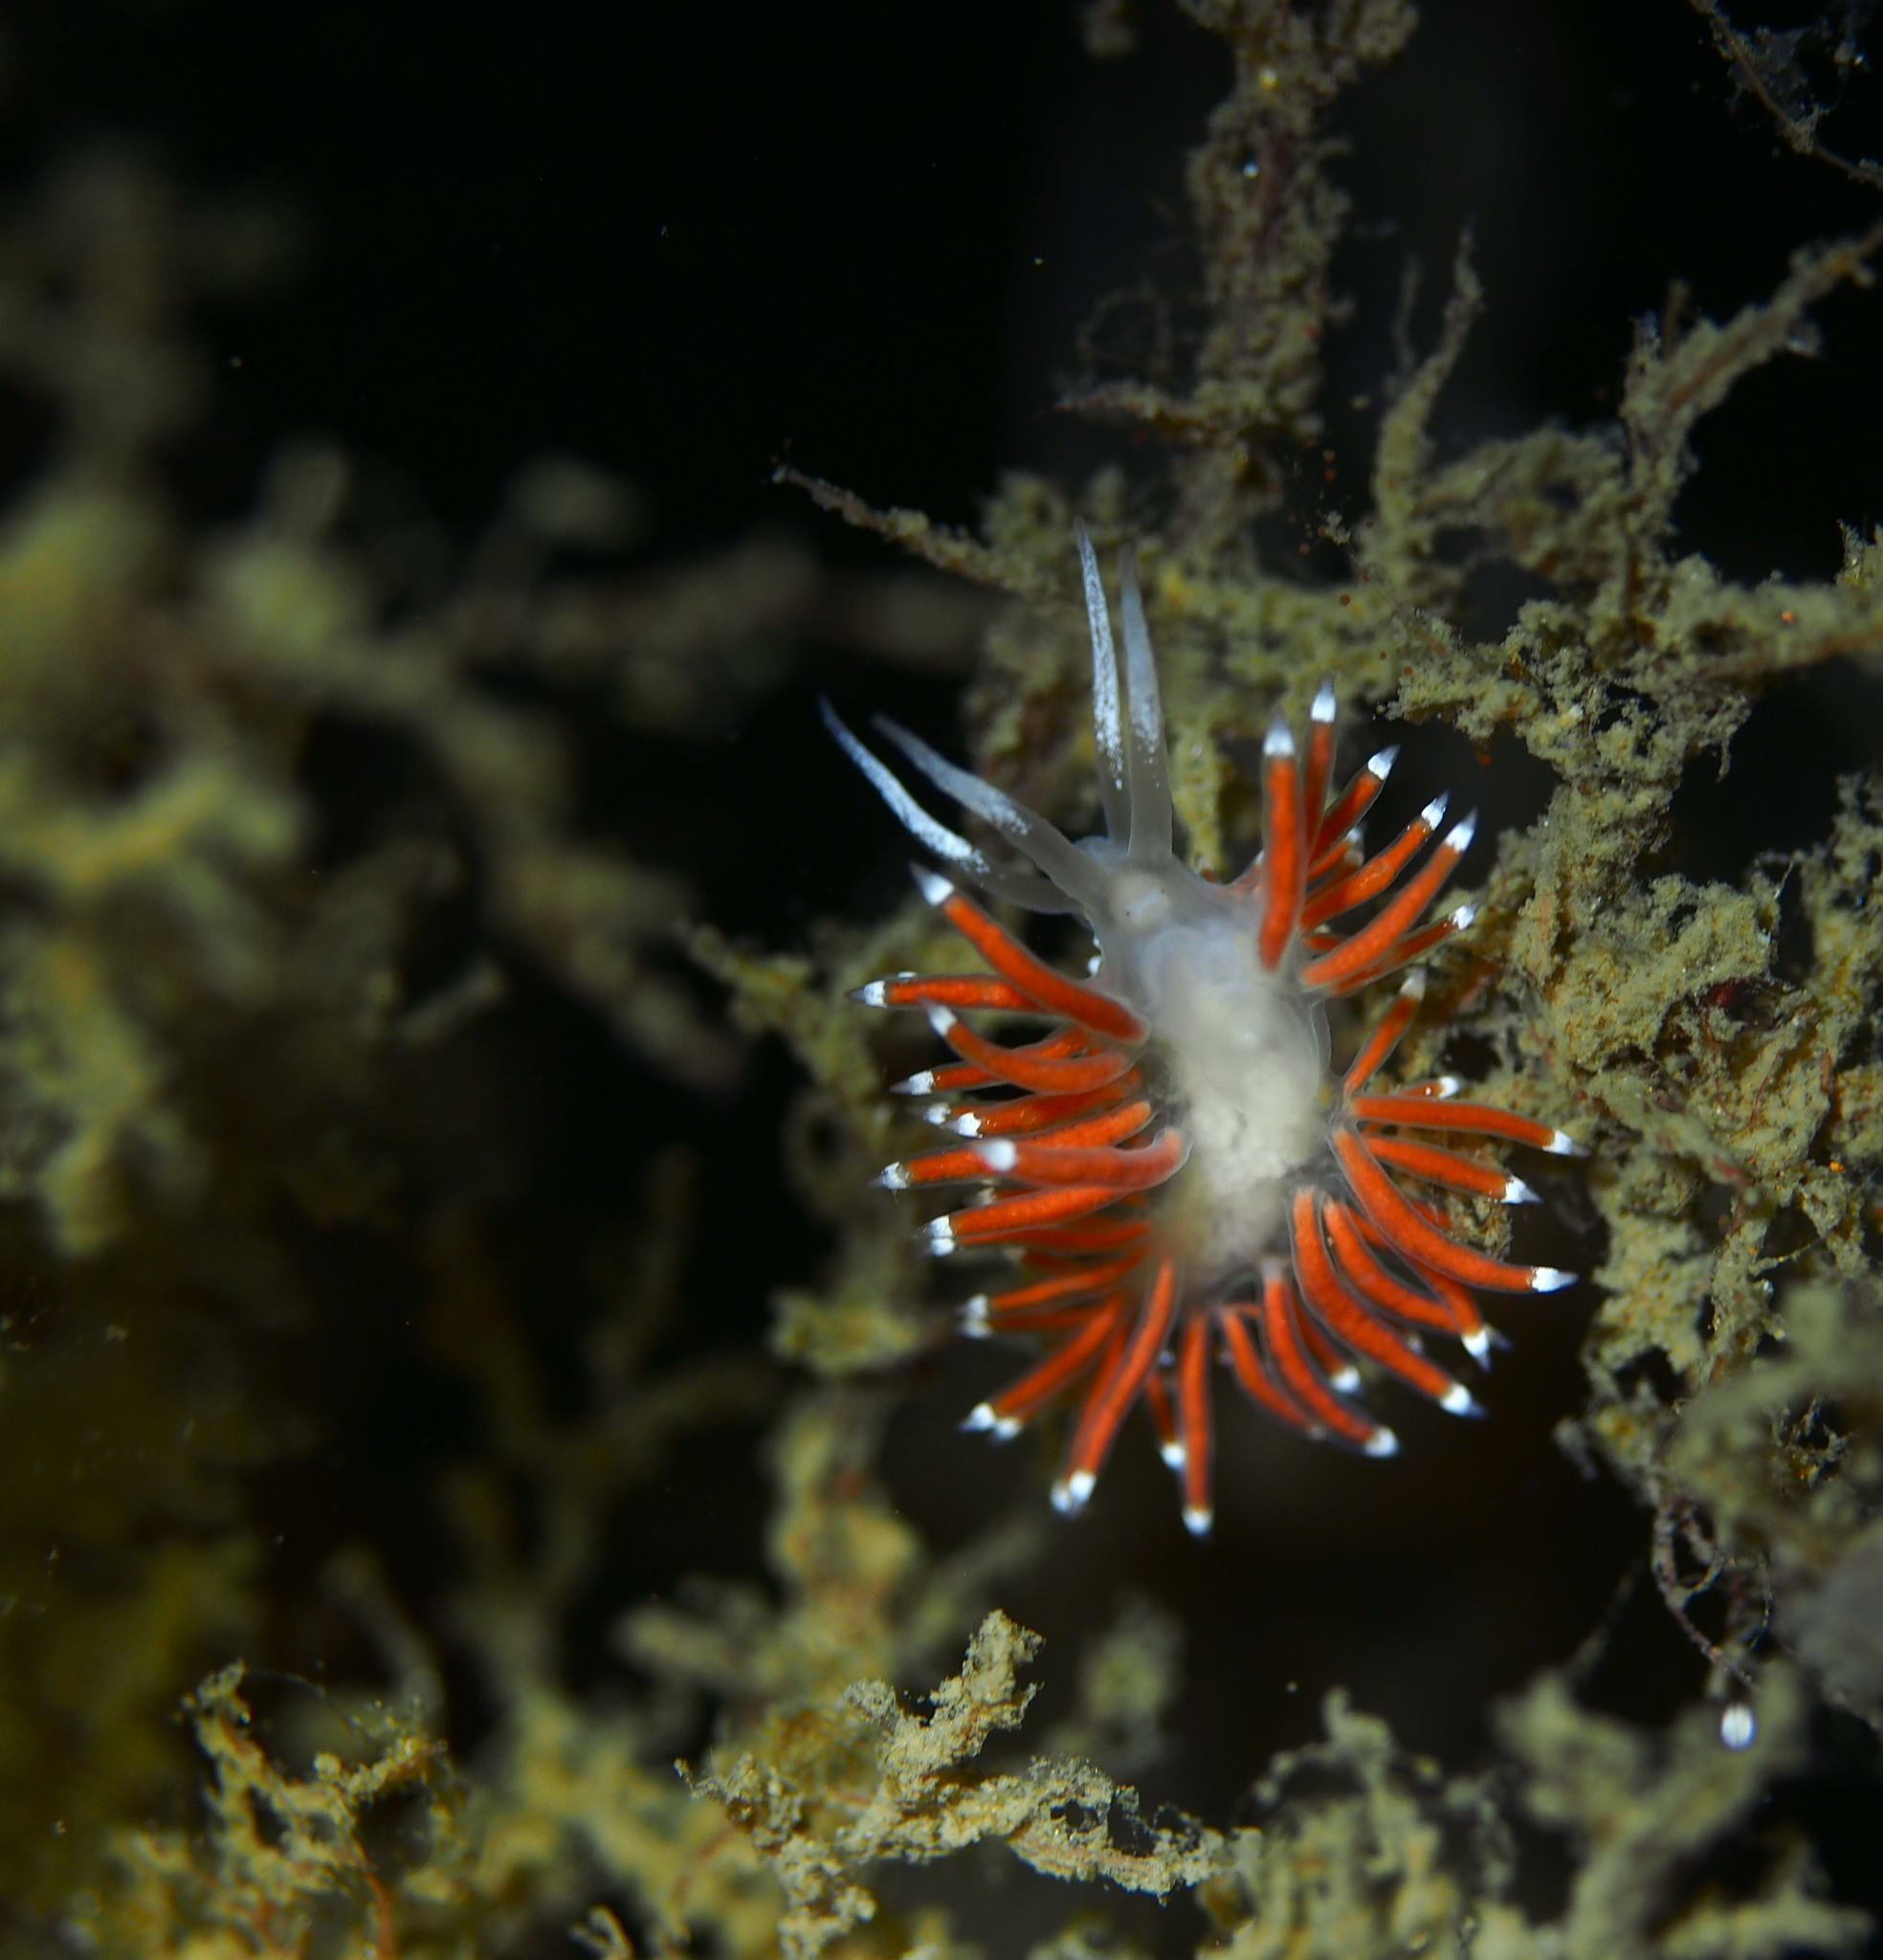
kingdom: Animalia
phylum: Mollusca
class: Gastropoda
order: Nudibranchia
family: Coryphellidae
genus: Coryphella
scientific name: Coryphella gracilis
